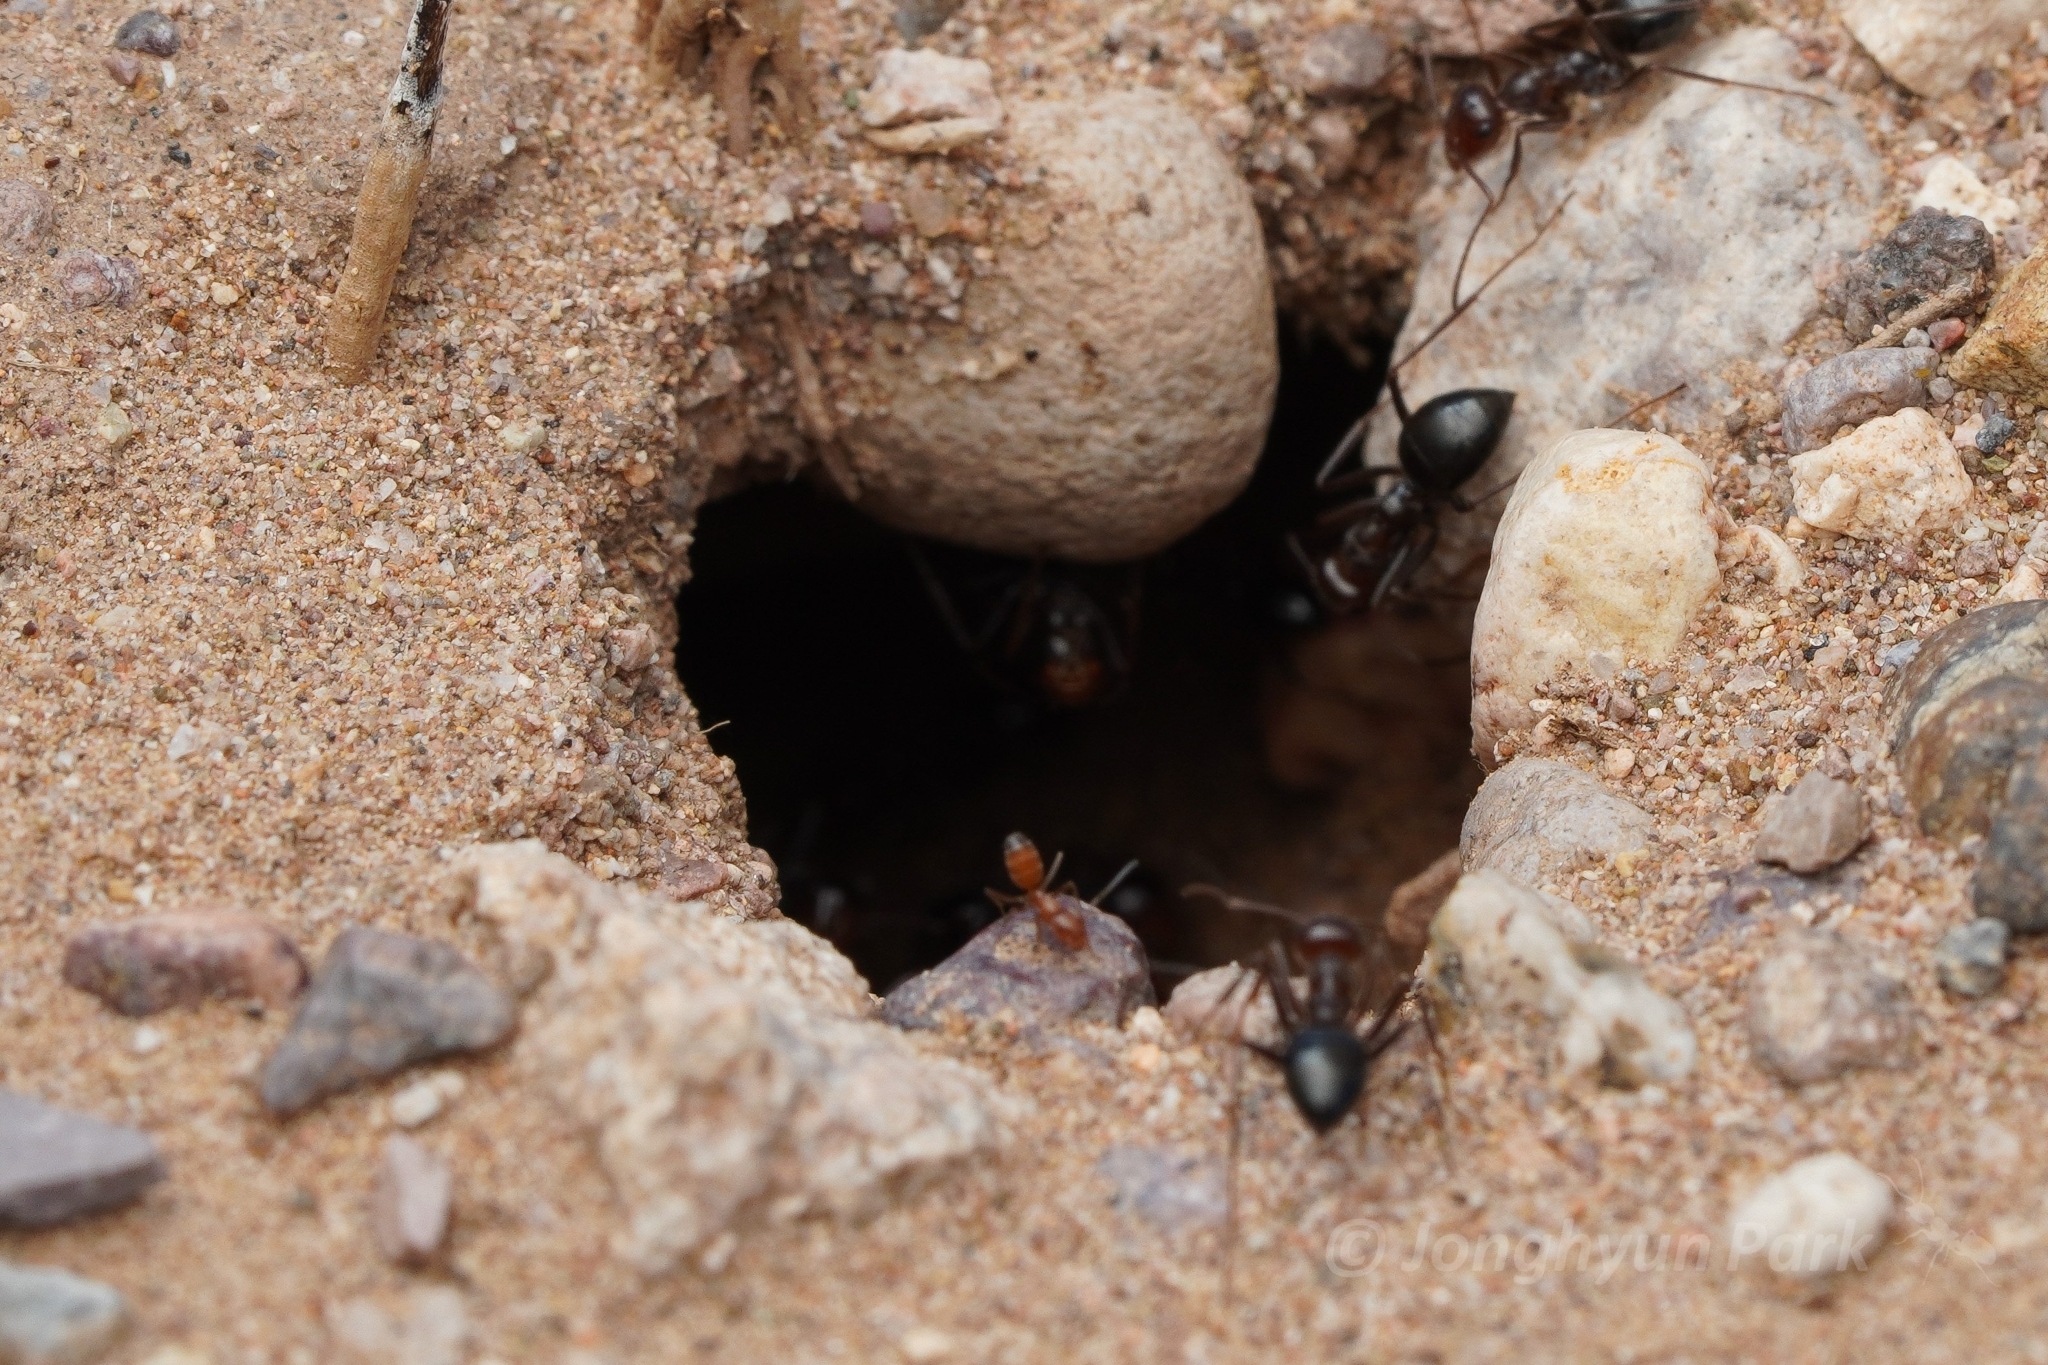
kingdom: Animalia
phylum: Arthropoda
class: Insecta
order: Hymenoptera
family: Formicidae
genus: Myrmecocystus
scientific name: Myrmecocystus mimicus
